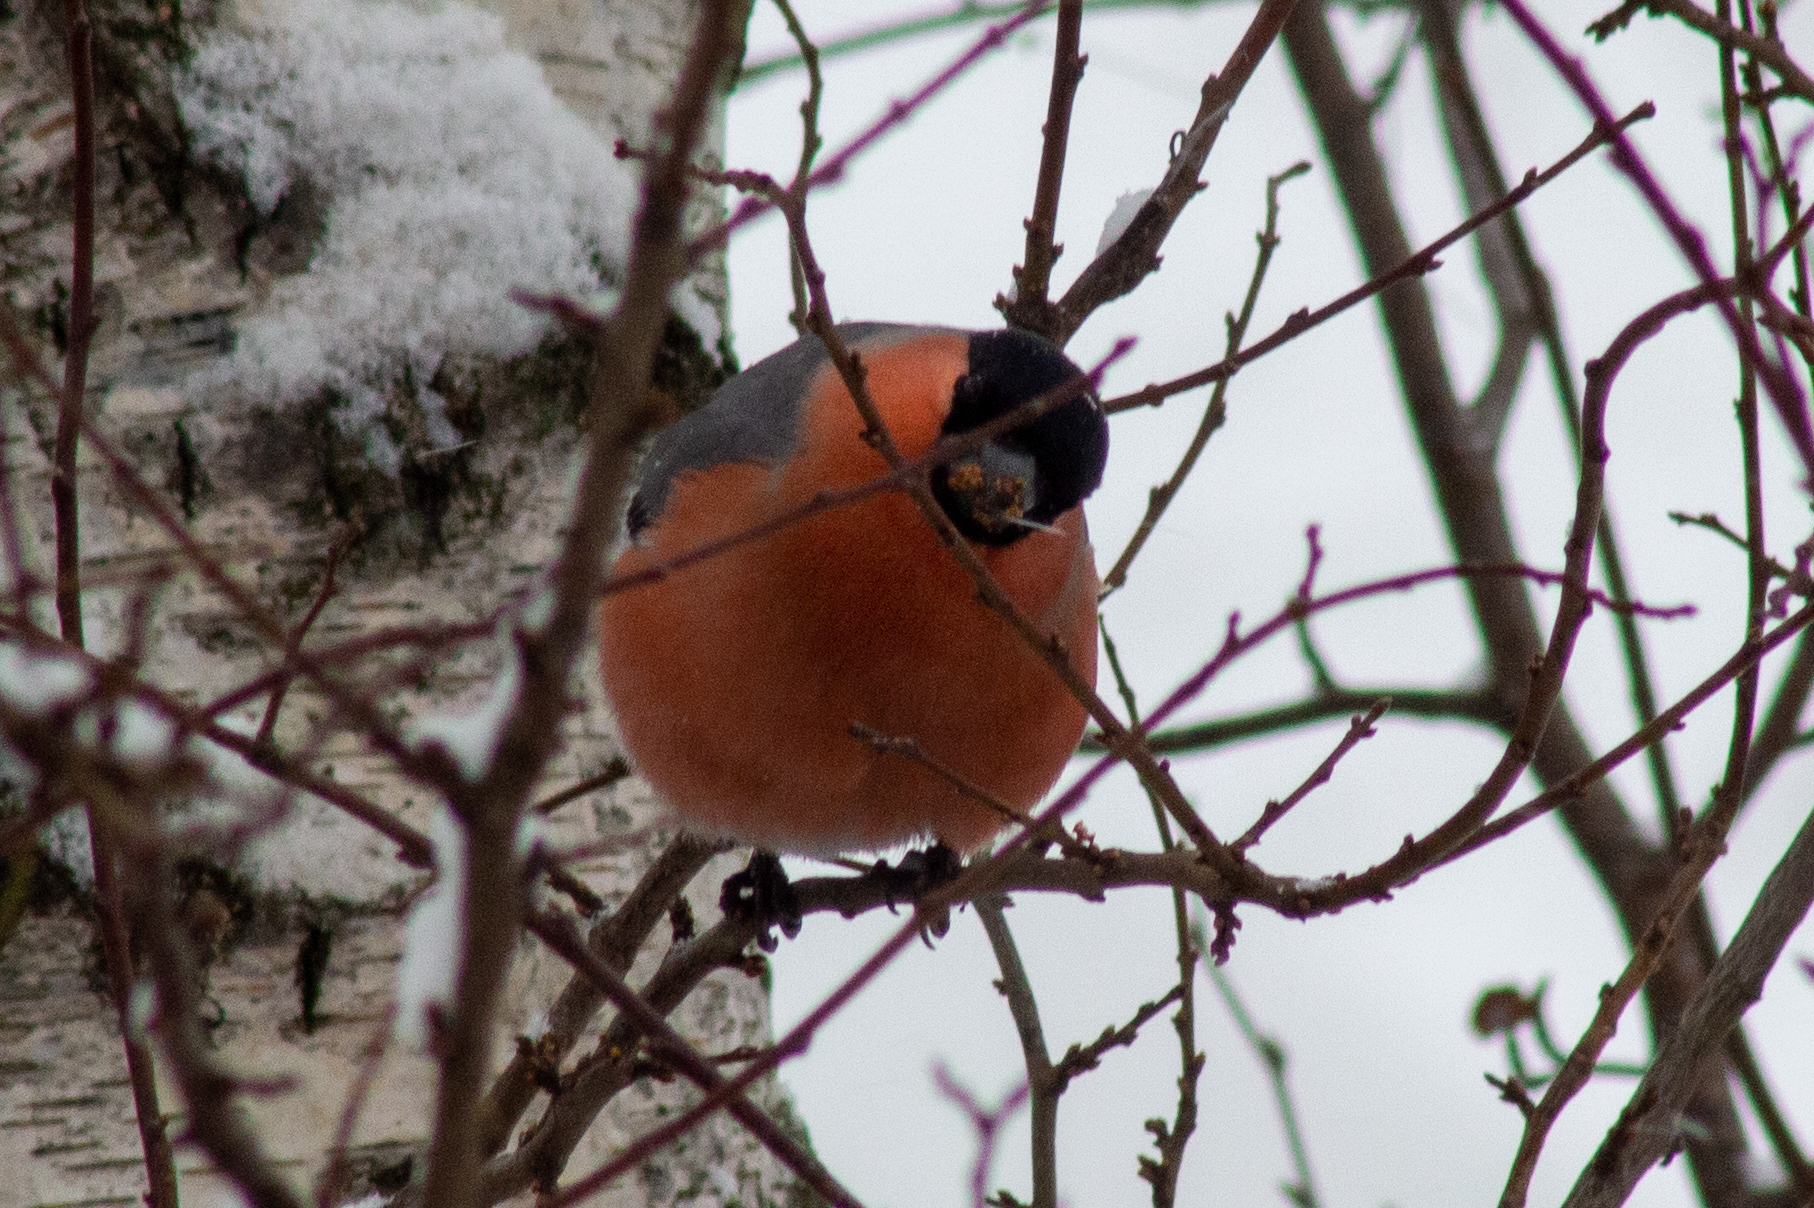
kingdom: Animalia
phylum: Chordata
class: Aves
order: Passeriformes
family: Fringillidae
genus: Pyrrhula
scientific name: Pyrrhula pyrrhula
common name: Eurasian bullfinch
